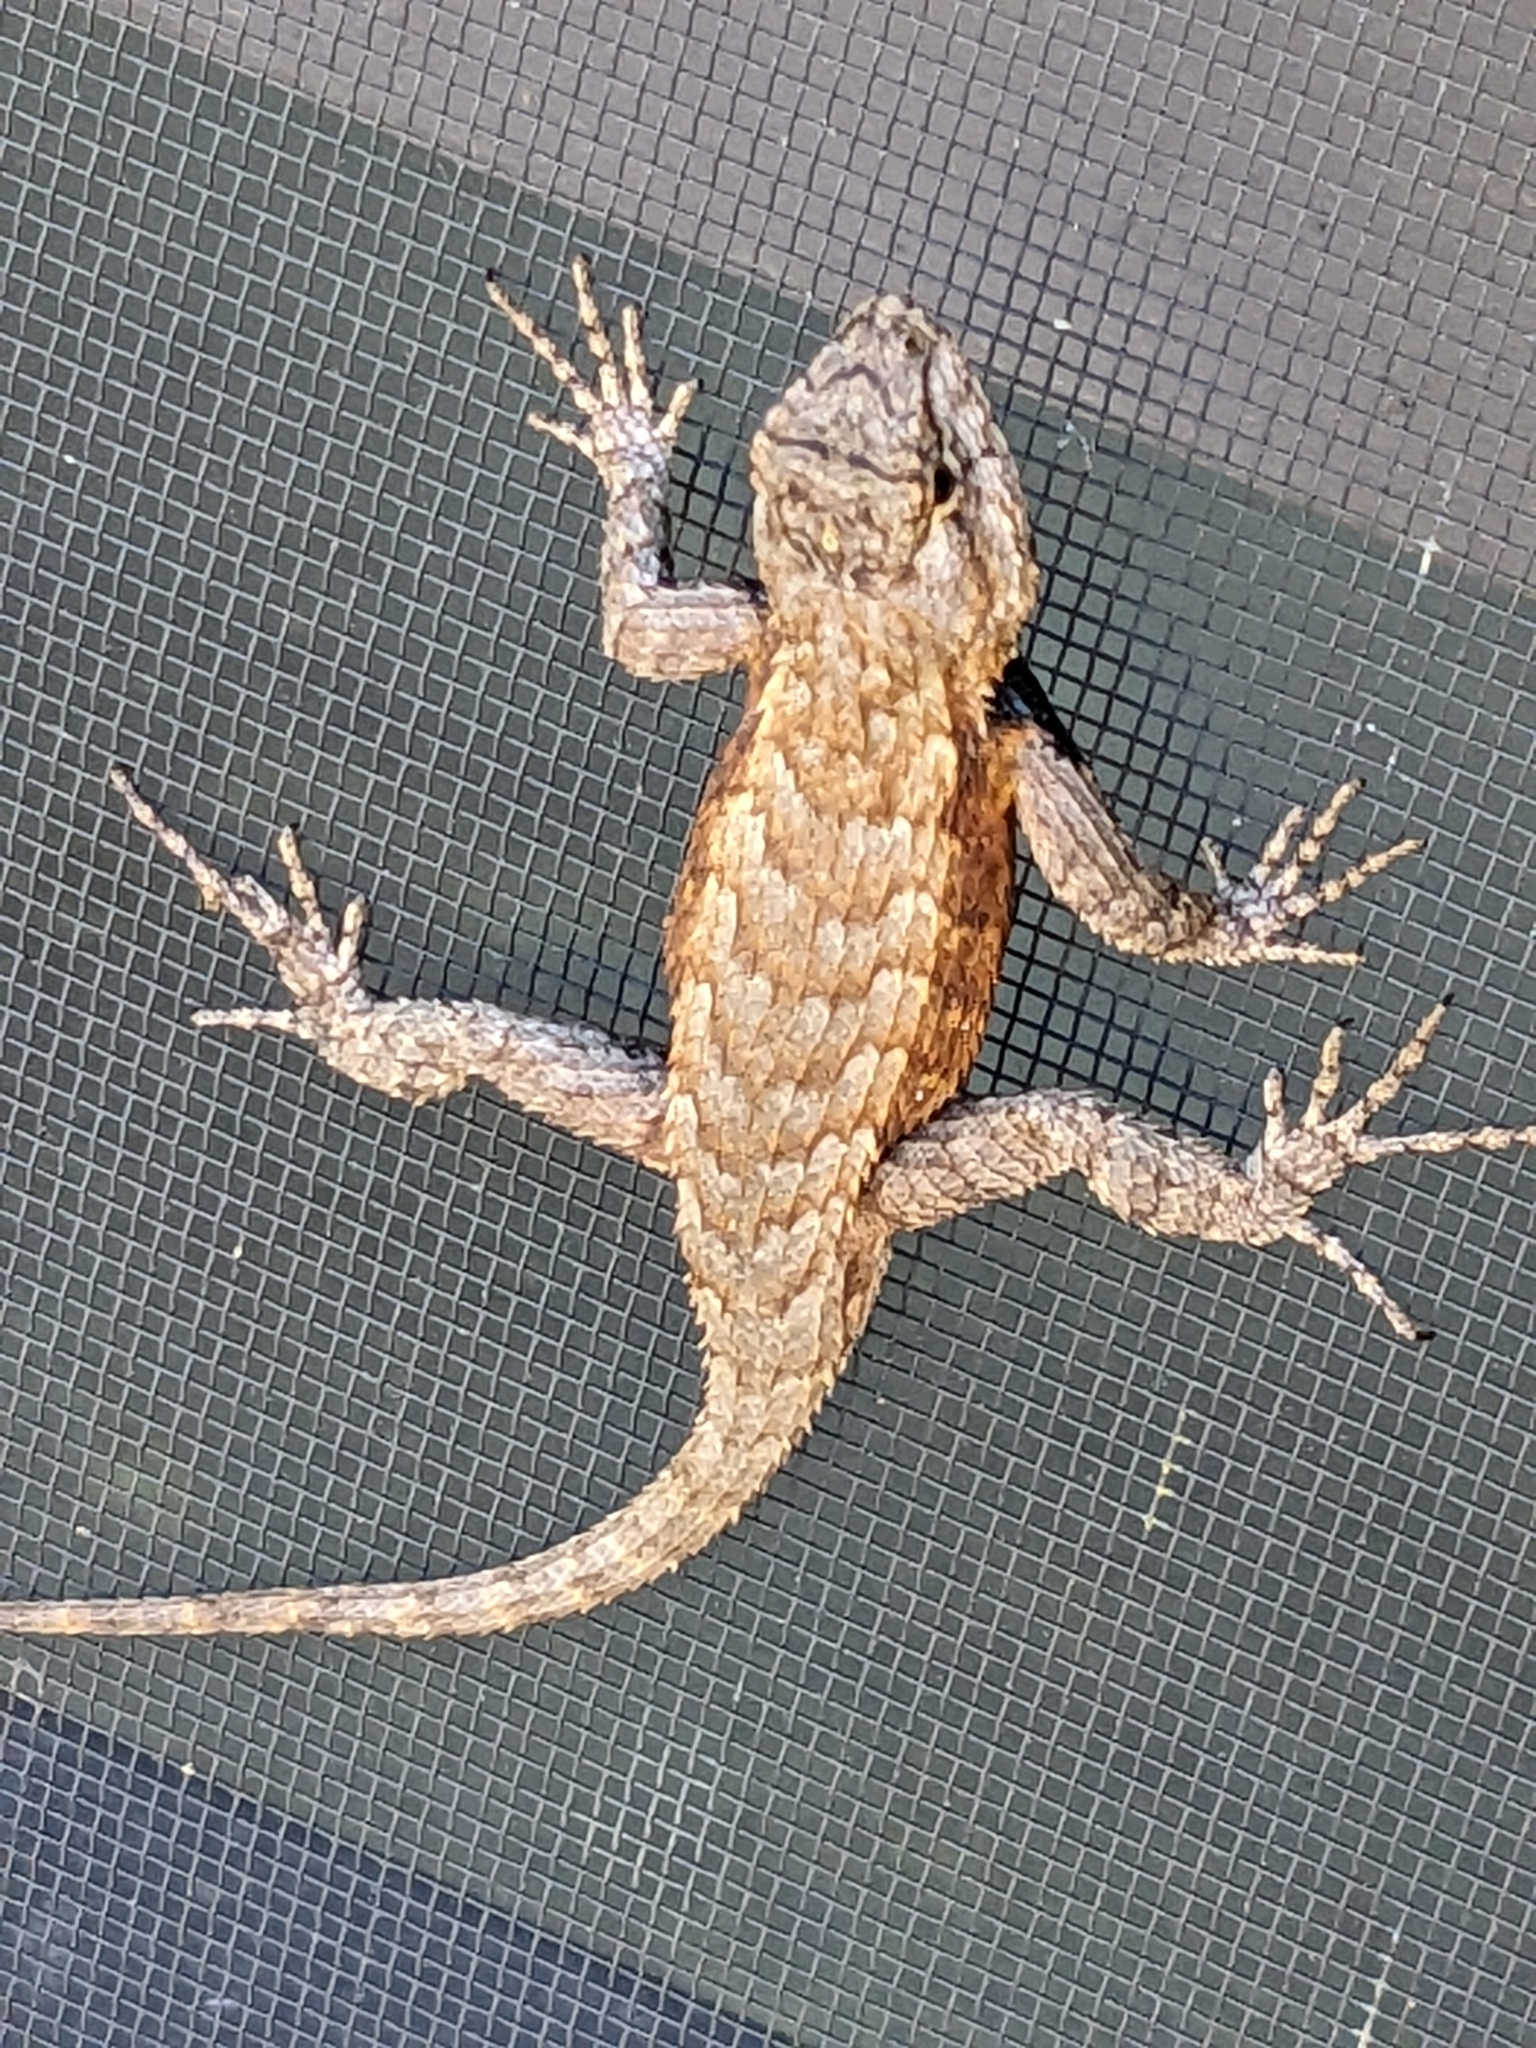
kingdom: Animalia
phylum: Chordata
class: Squamata
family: Phrynosomatidae
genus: Sceloporus
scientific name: Sceloporus undulatus
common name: Eastern fence lizard
